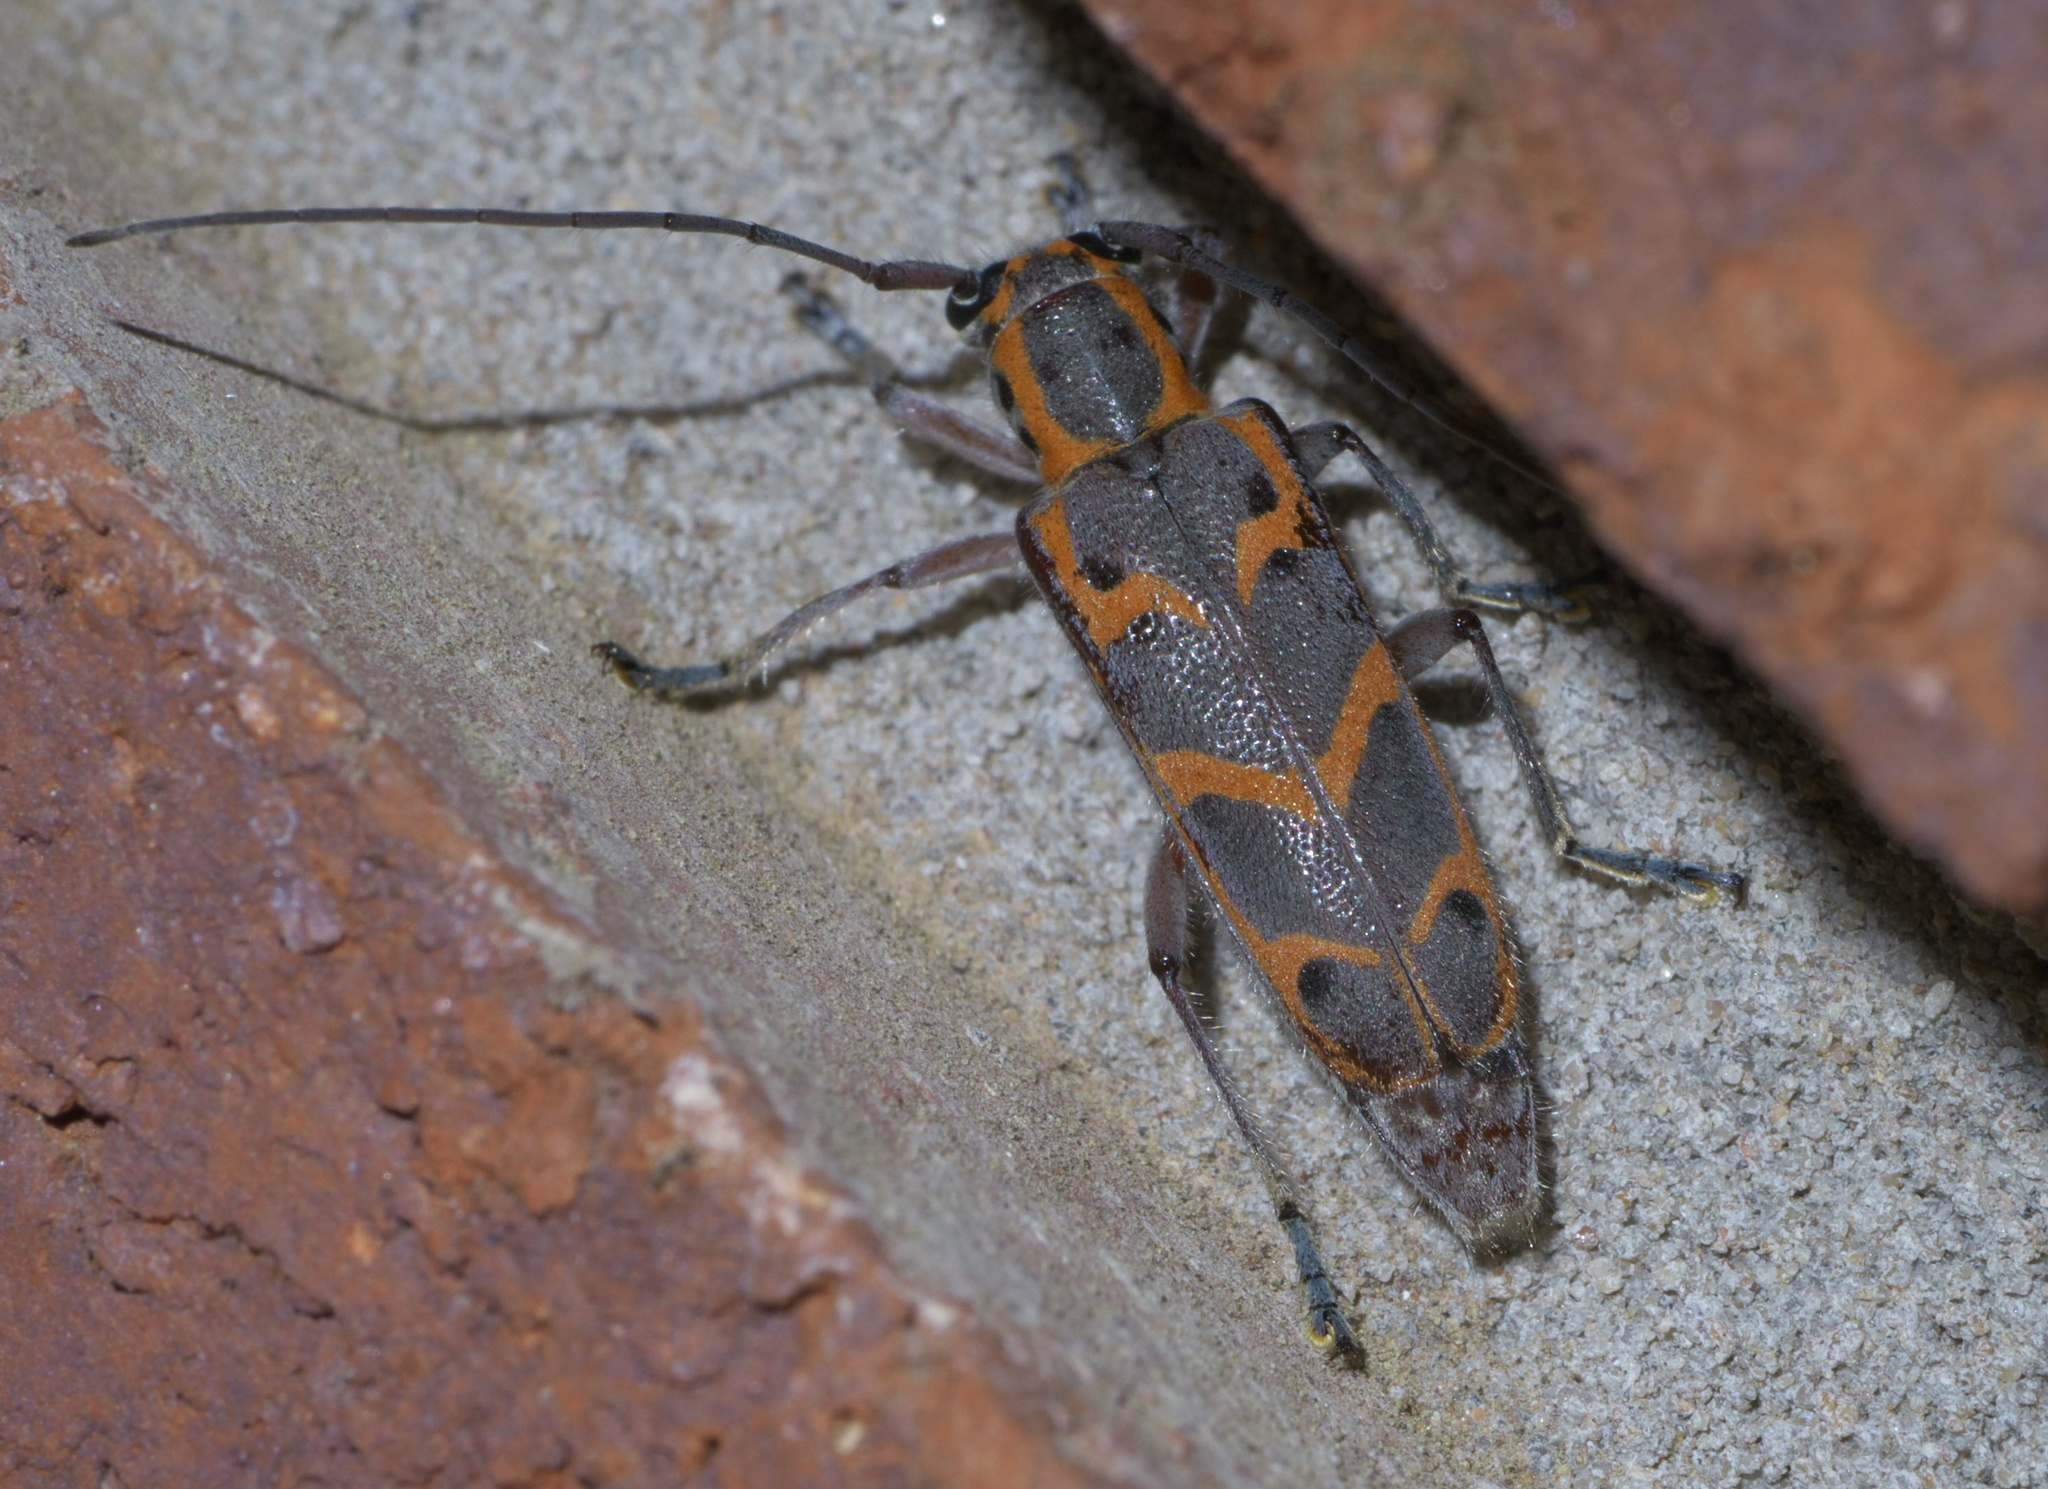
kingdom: Animalia
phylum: Arthropoda
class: Insecta
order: Coleoptera
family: Cerambycidae
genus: Saperda
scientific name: Saperda tridentata
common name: Elm borer
